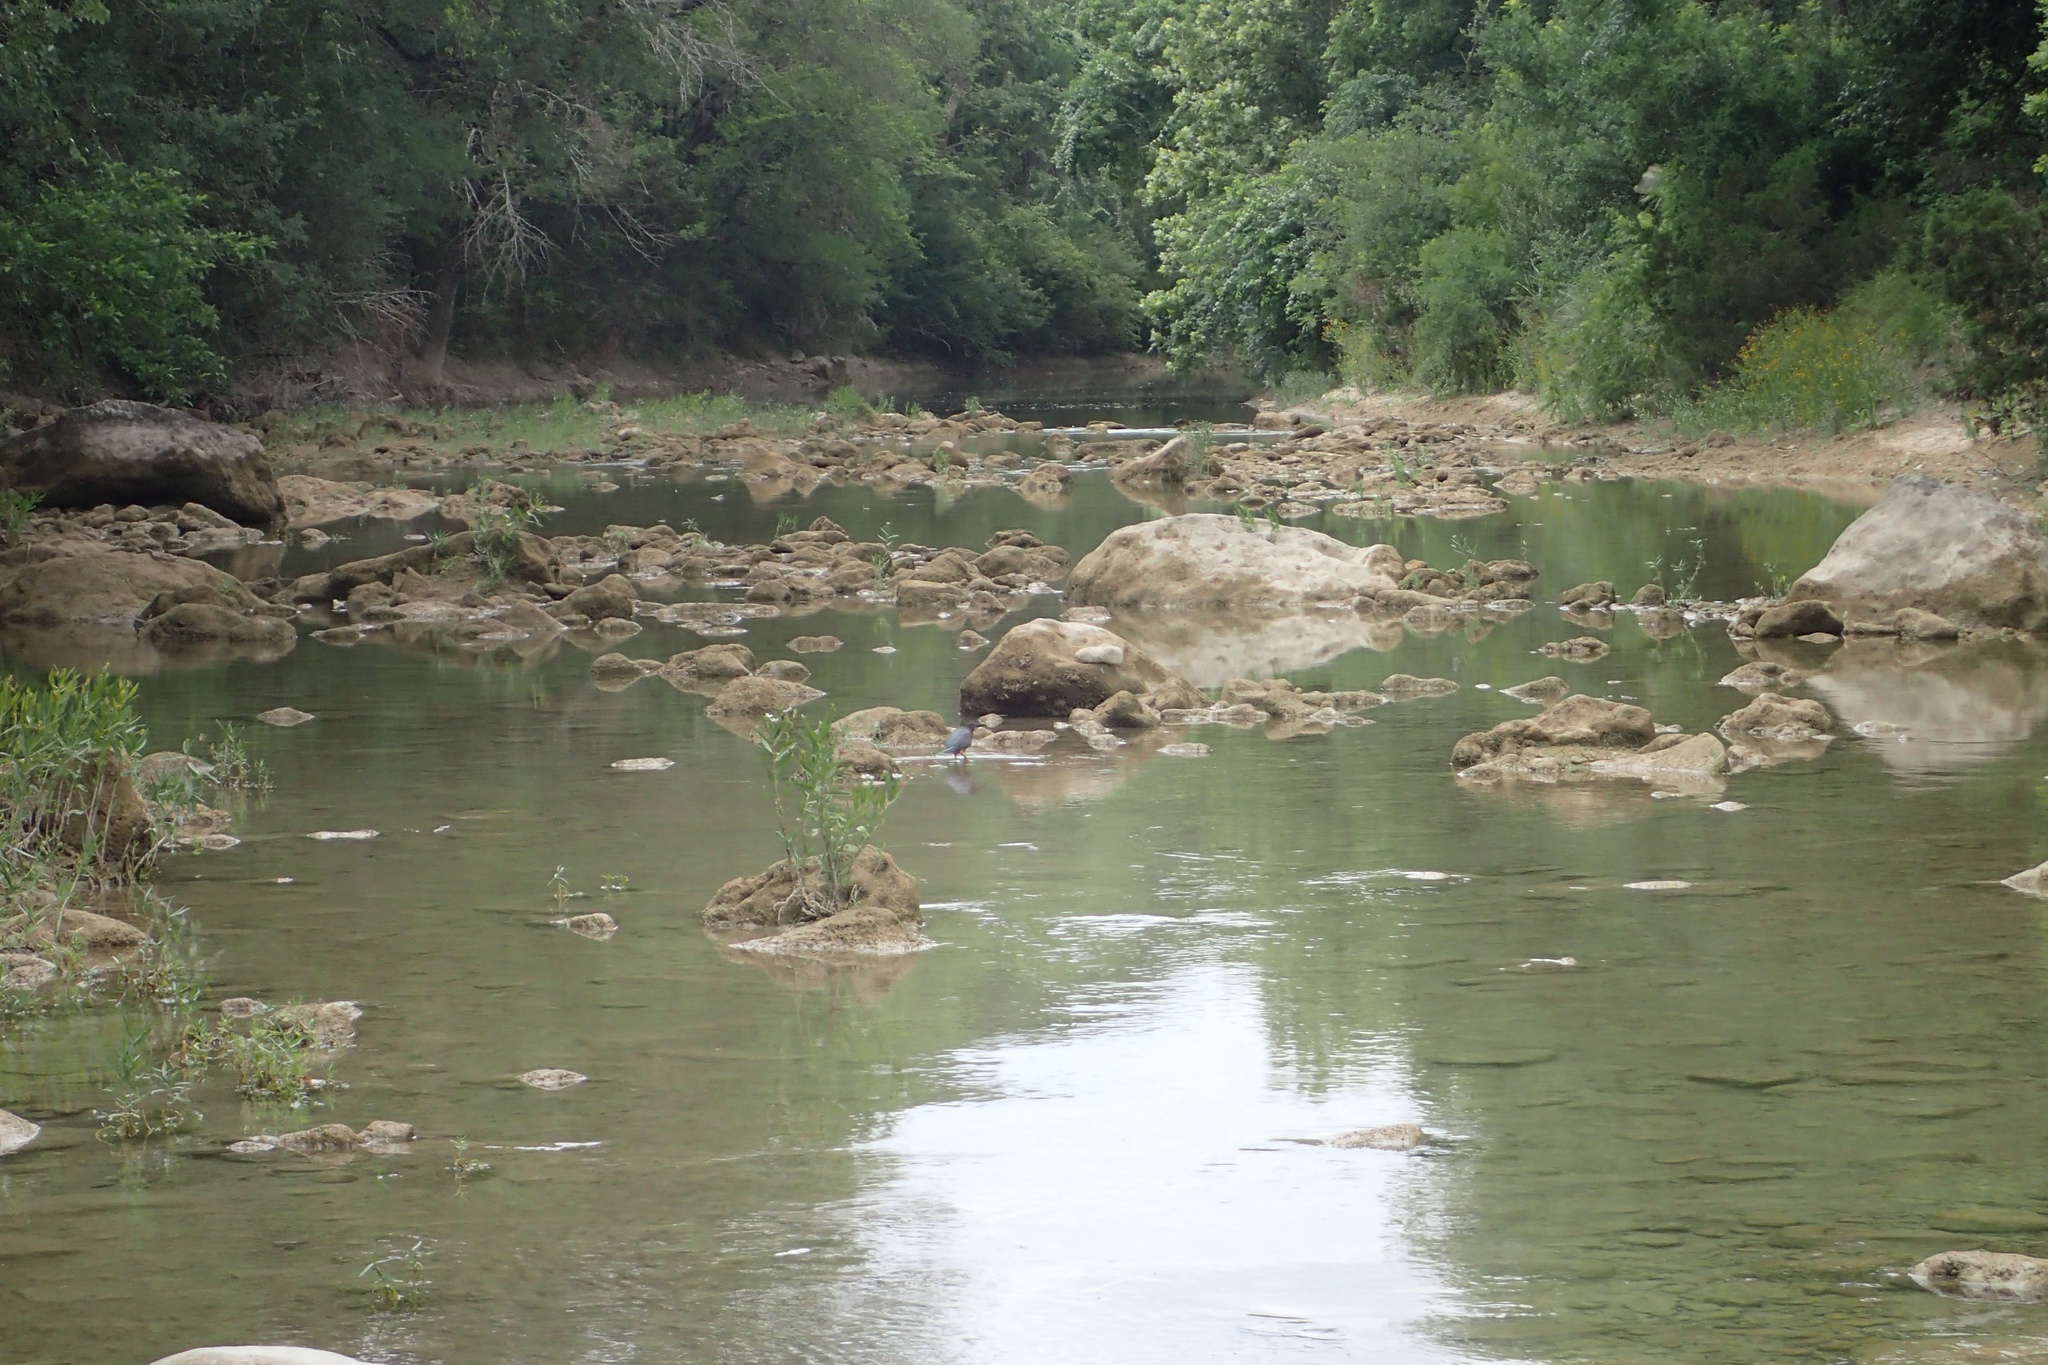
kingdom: Animalia
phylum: Chordata
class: Aves
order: Pelecaniformes
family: Ardeidae
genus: Butorides
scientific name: Butorides virescens
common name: Green heron
